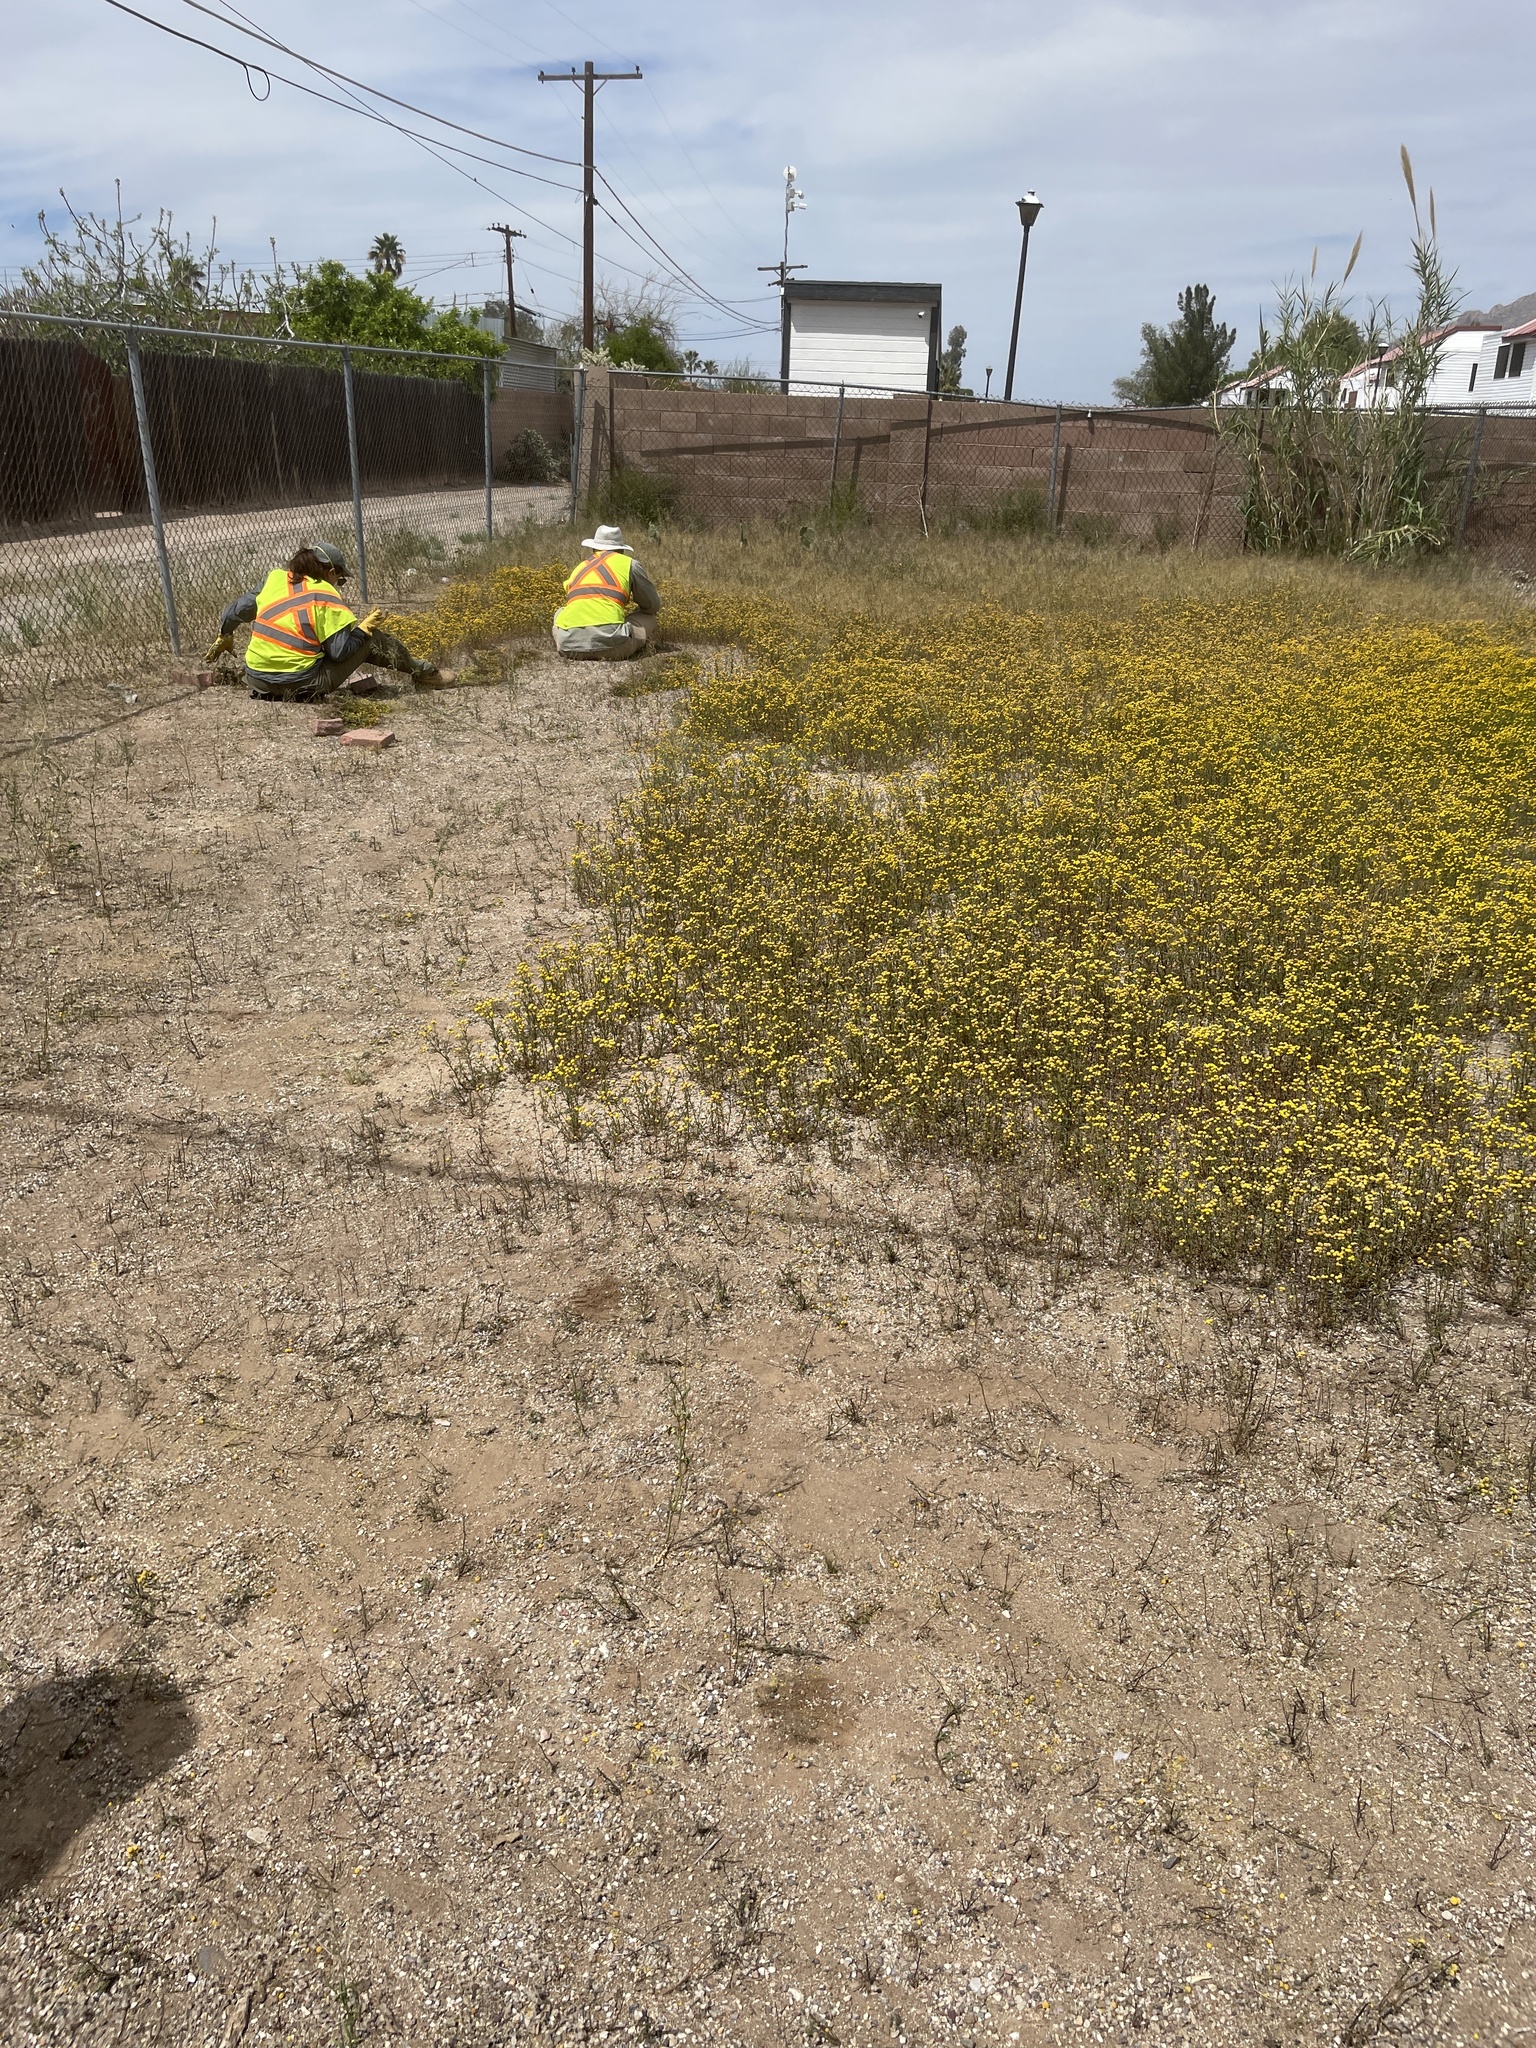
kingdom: Plantae
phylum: Tracheophyta
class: Magnoliopsida
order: Asterales
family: Asteraceae
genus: Oncosiphon
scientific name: Oncosiphon pilulifer
